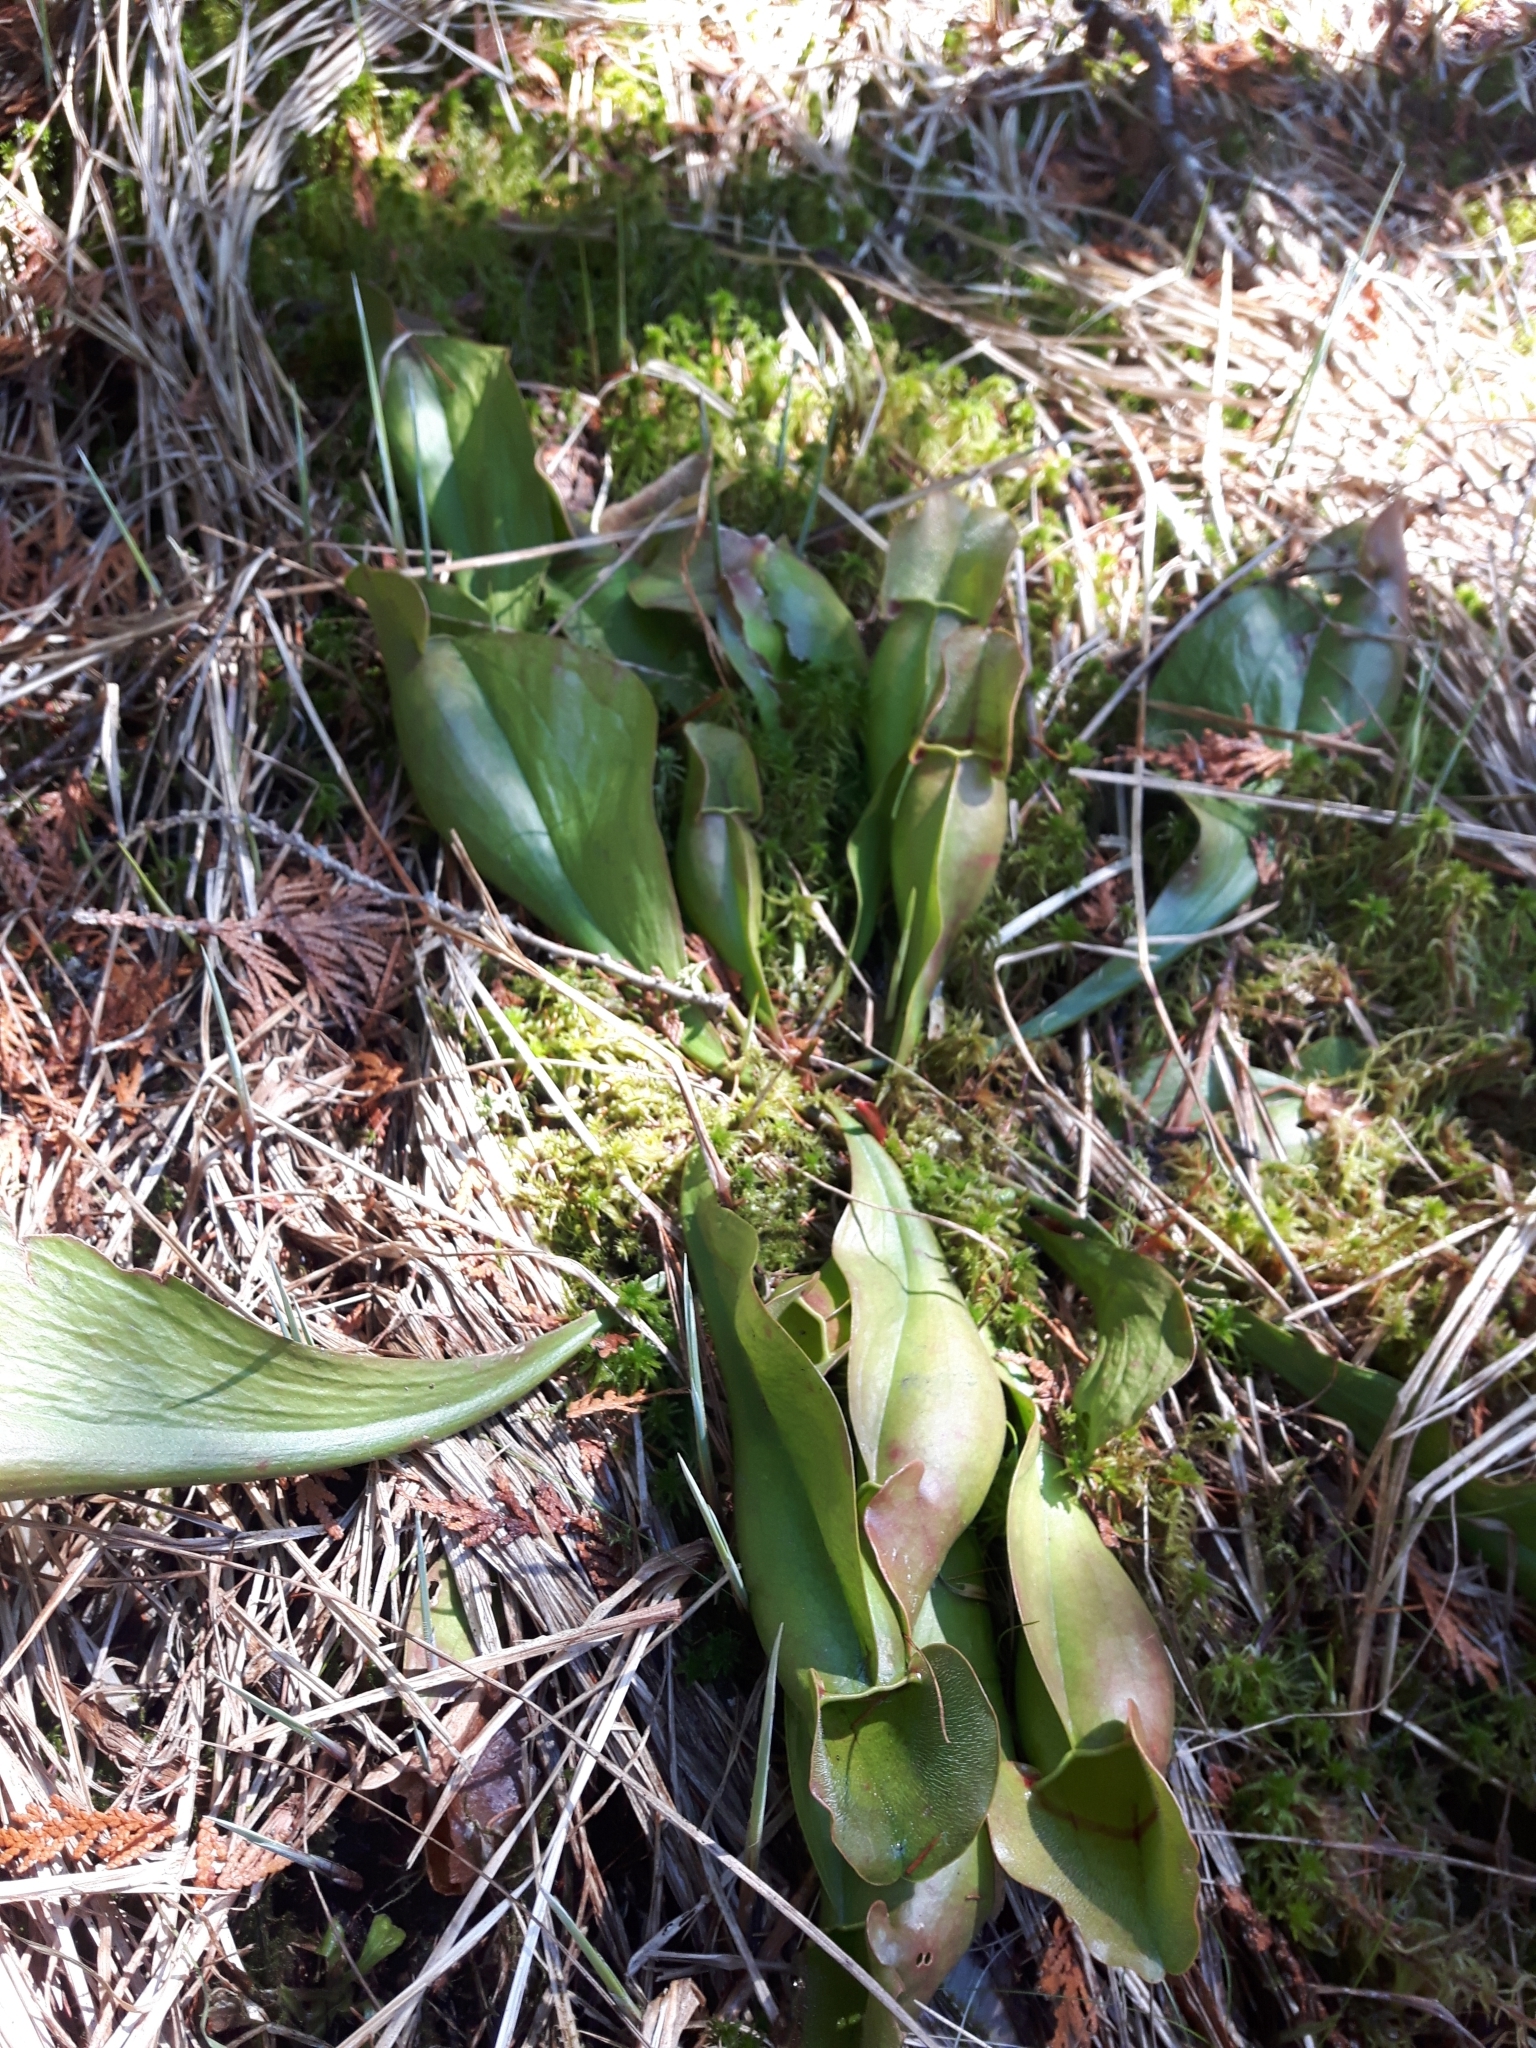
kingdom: Plantae
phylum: Tracheophyta
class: Magnoliopsida
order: Ericales
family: Sarraceniaceae
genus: Sarracenia
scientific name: Sarracenia purpurea
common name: Pitcherplant
